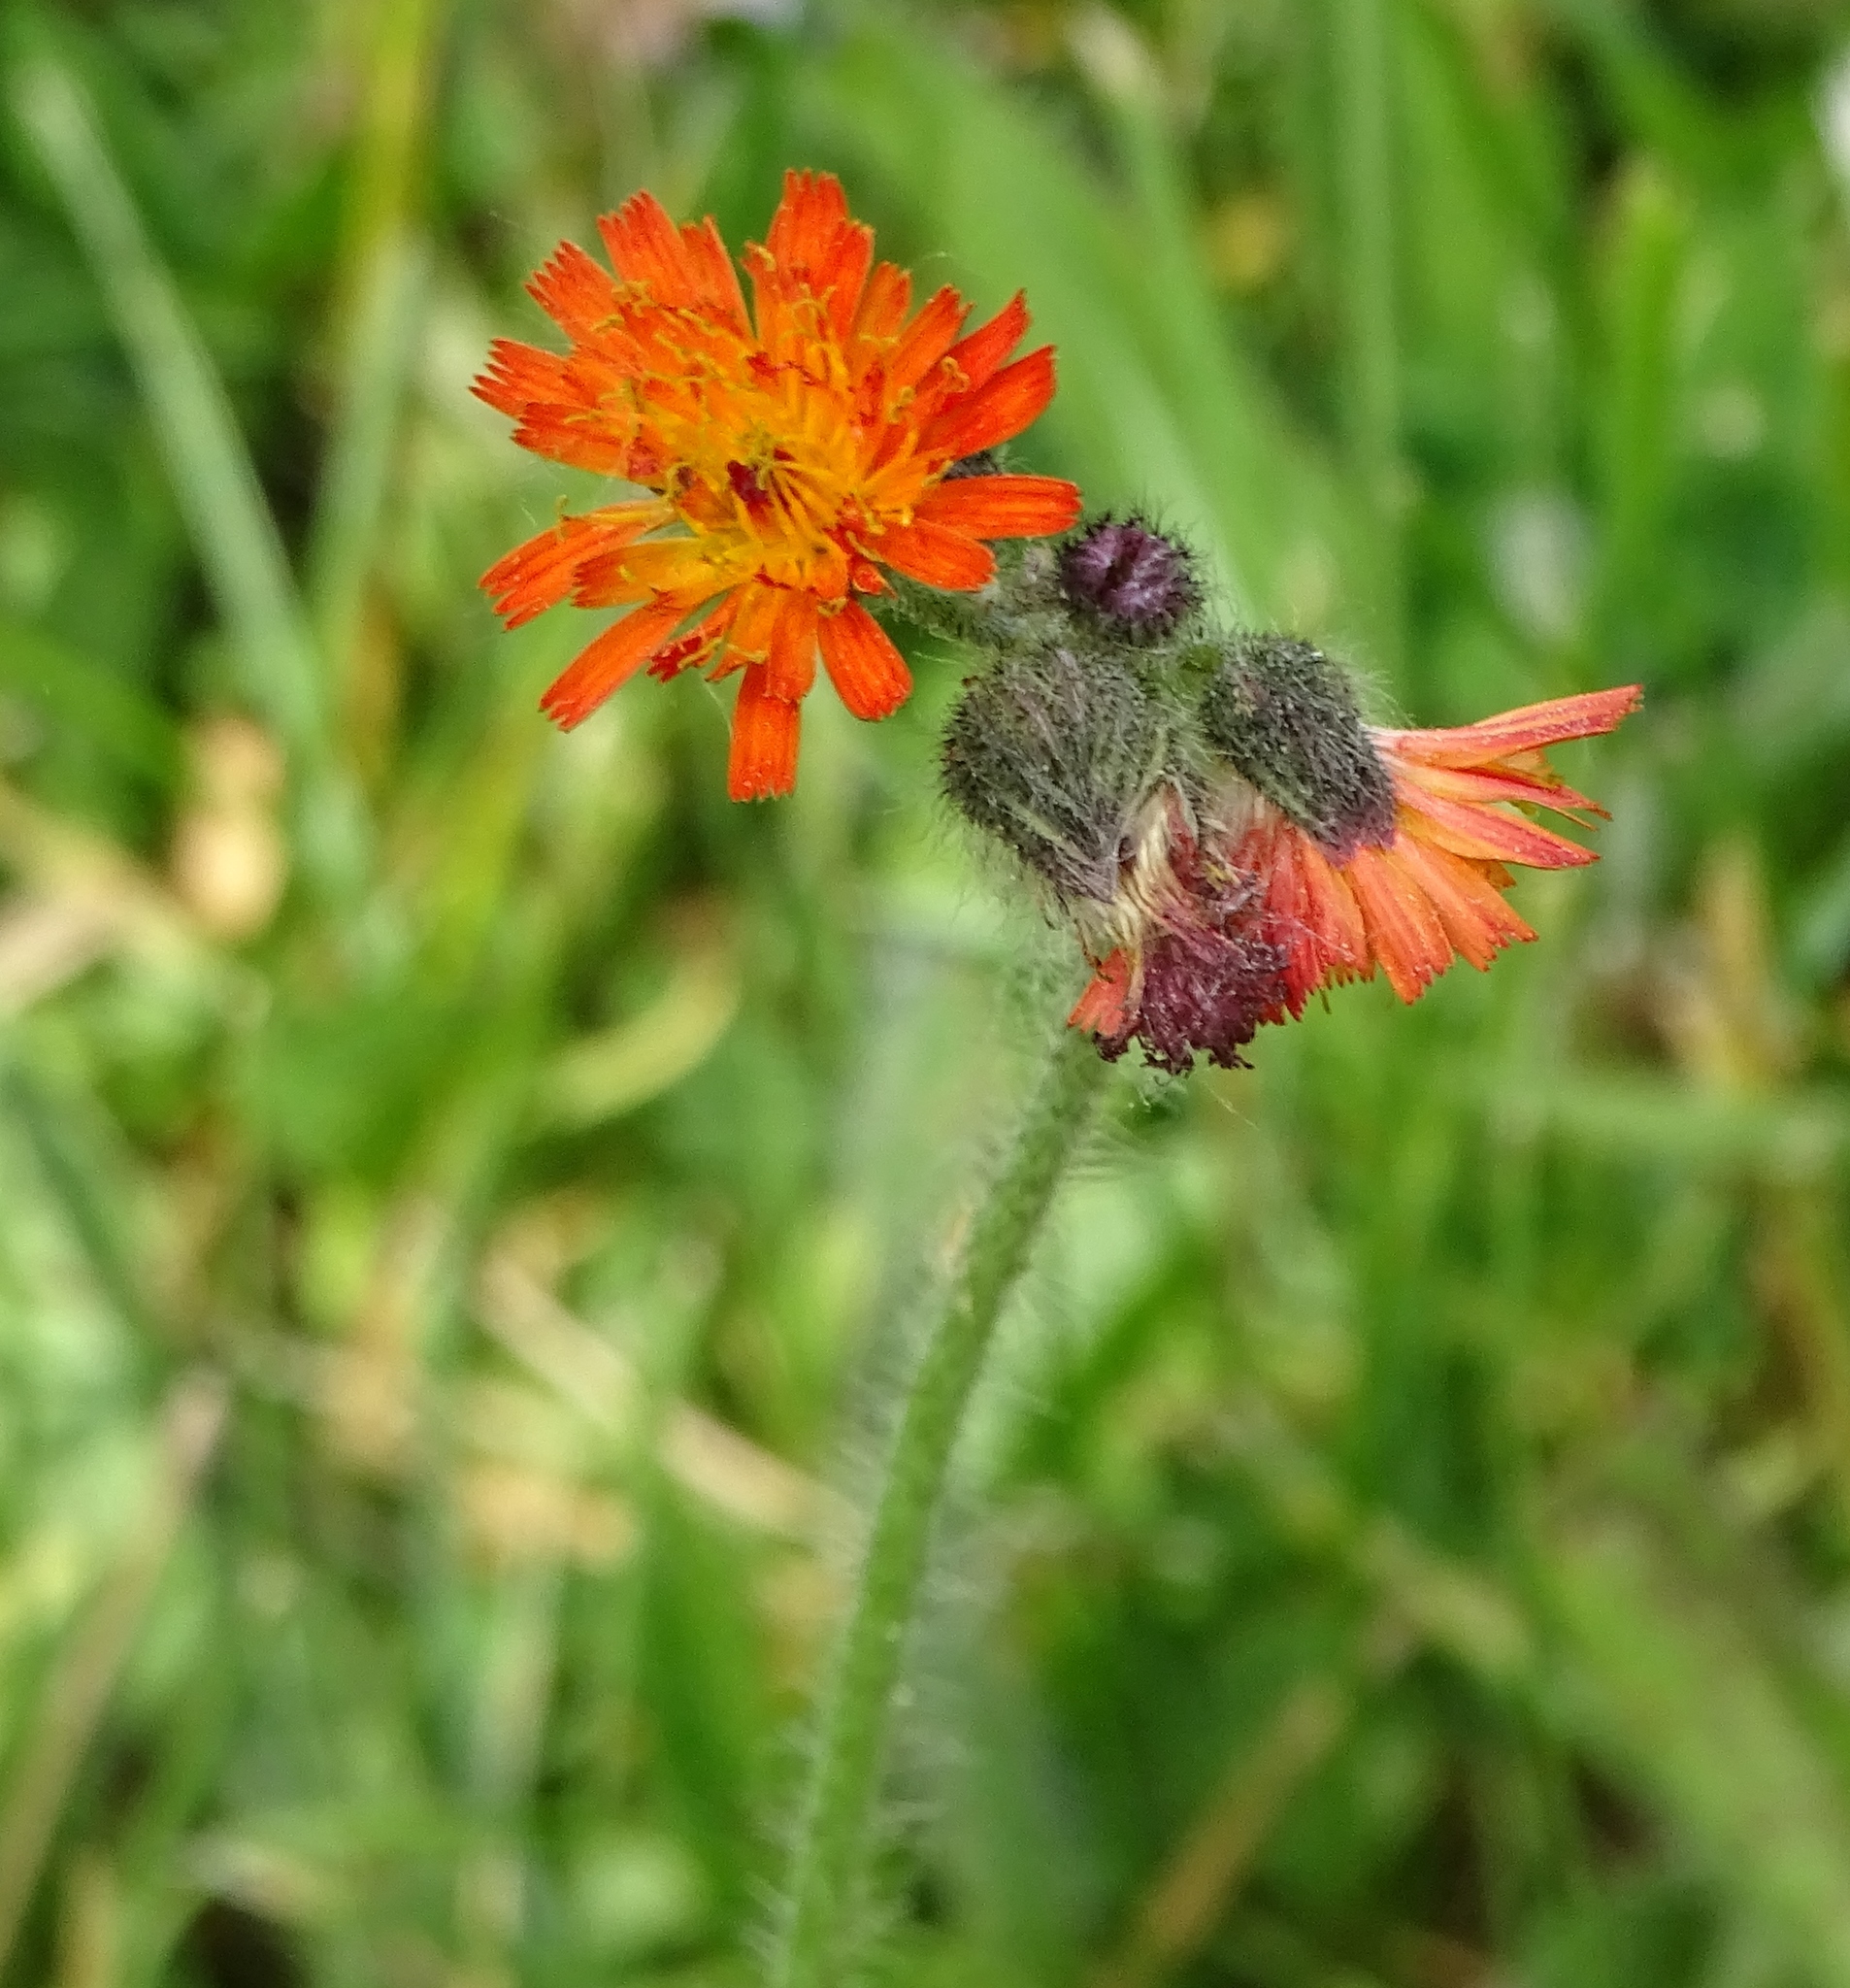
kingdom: Plantae
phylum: Tracheophyta
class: Magnoliopsida
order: Asterales
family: Asteraceae
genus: Pilosella
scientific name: Pilosella aurantiaca
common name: Fox-and-cubs
